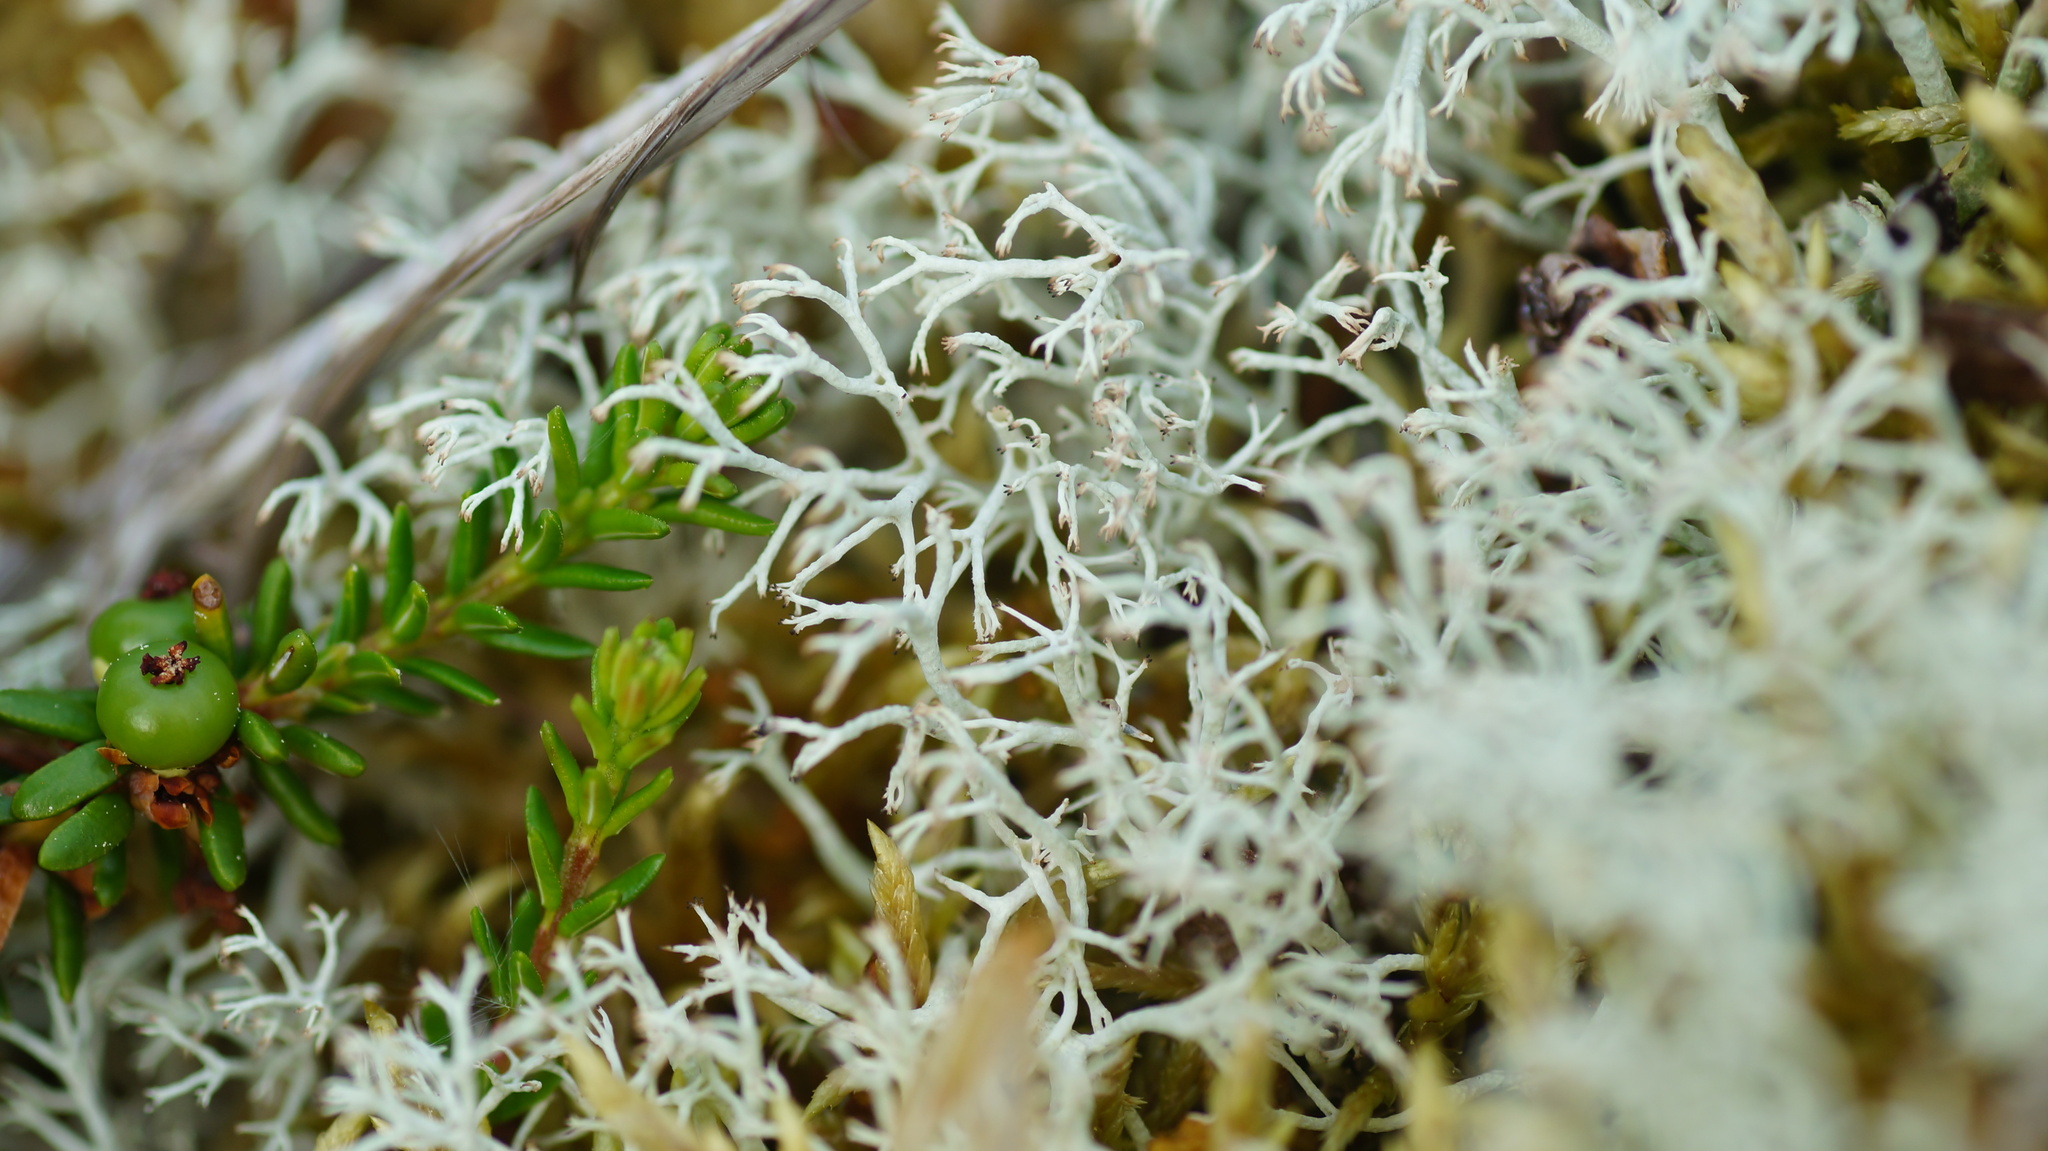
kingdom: Plantae
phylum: Tracheophyta
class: Magnoliopsida
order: Ericales
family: Ericaceae
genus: Empetrum
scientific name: Empetrum hermaphroditum
